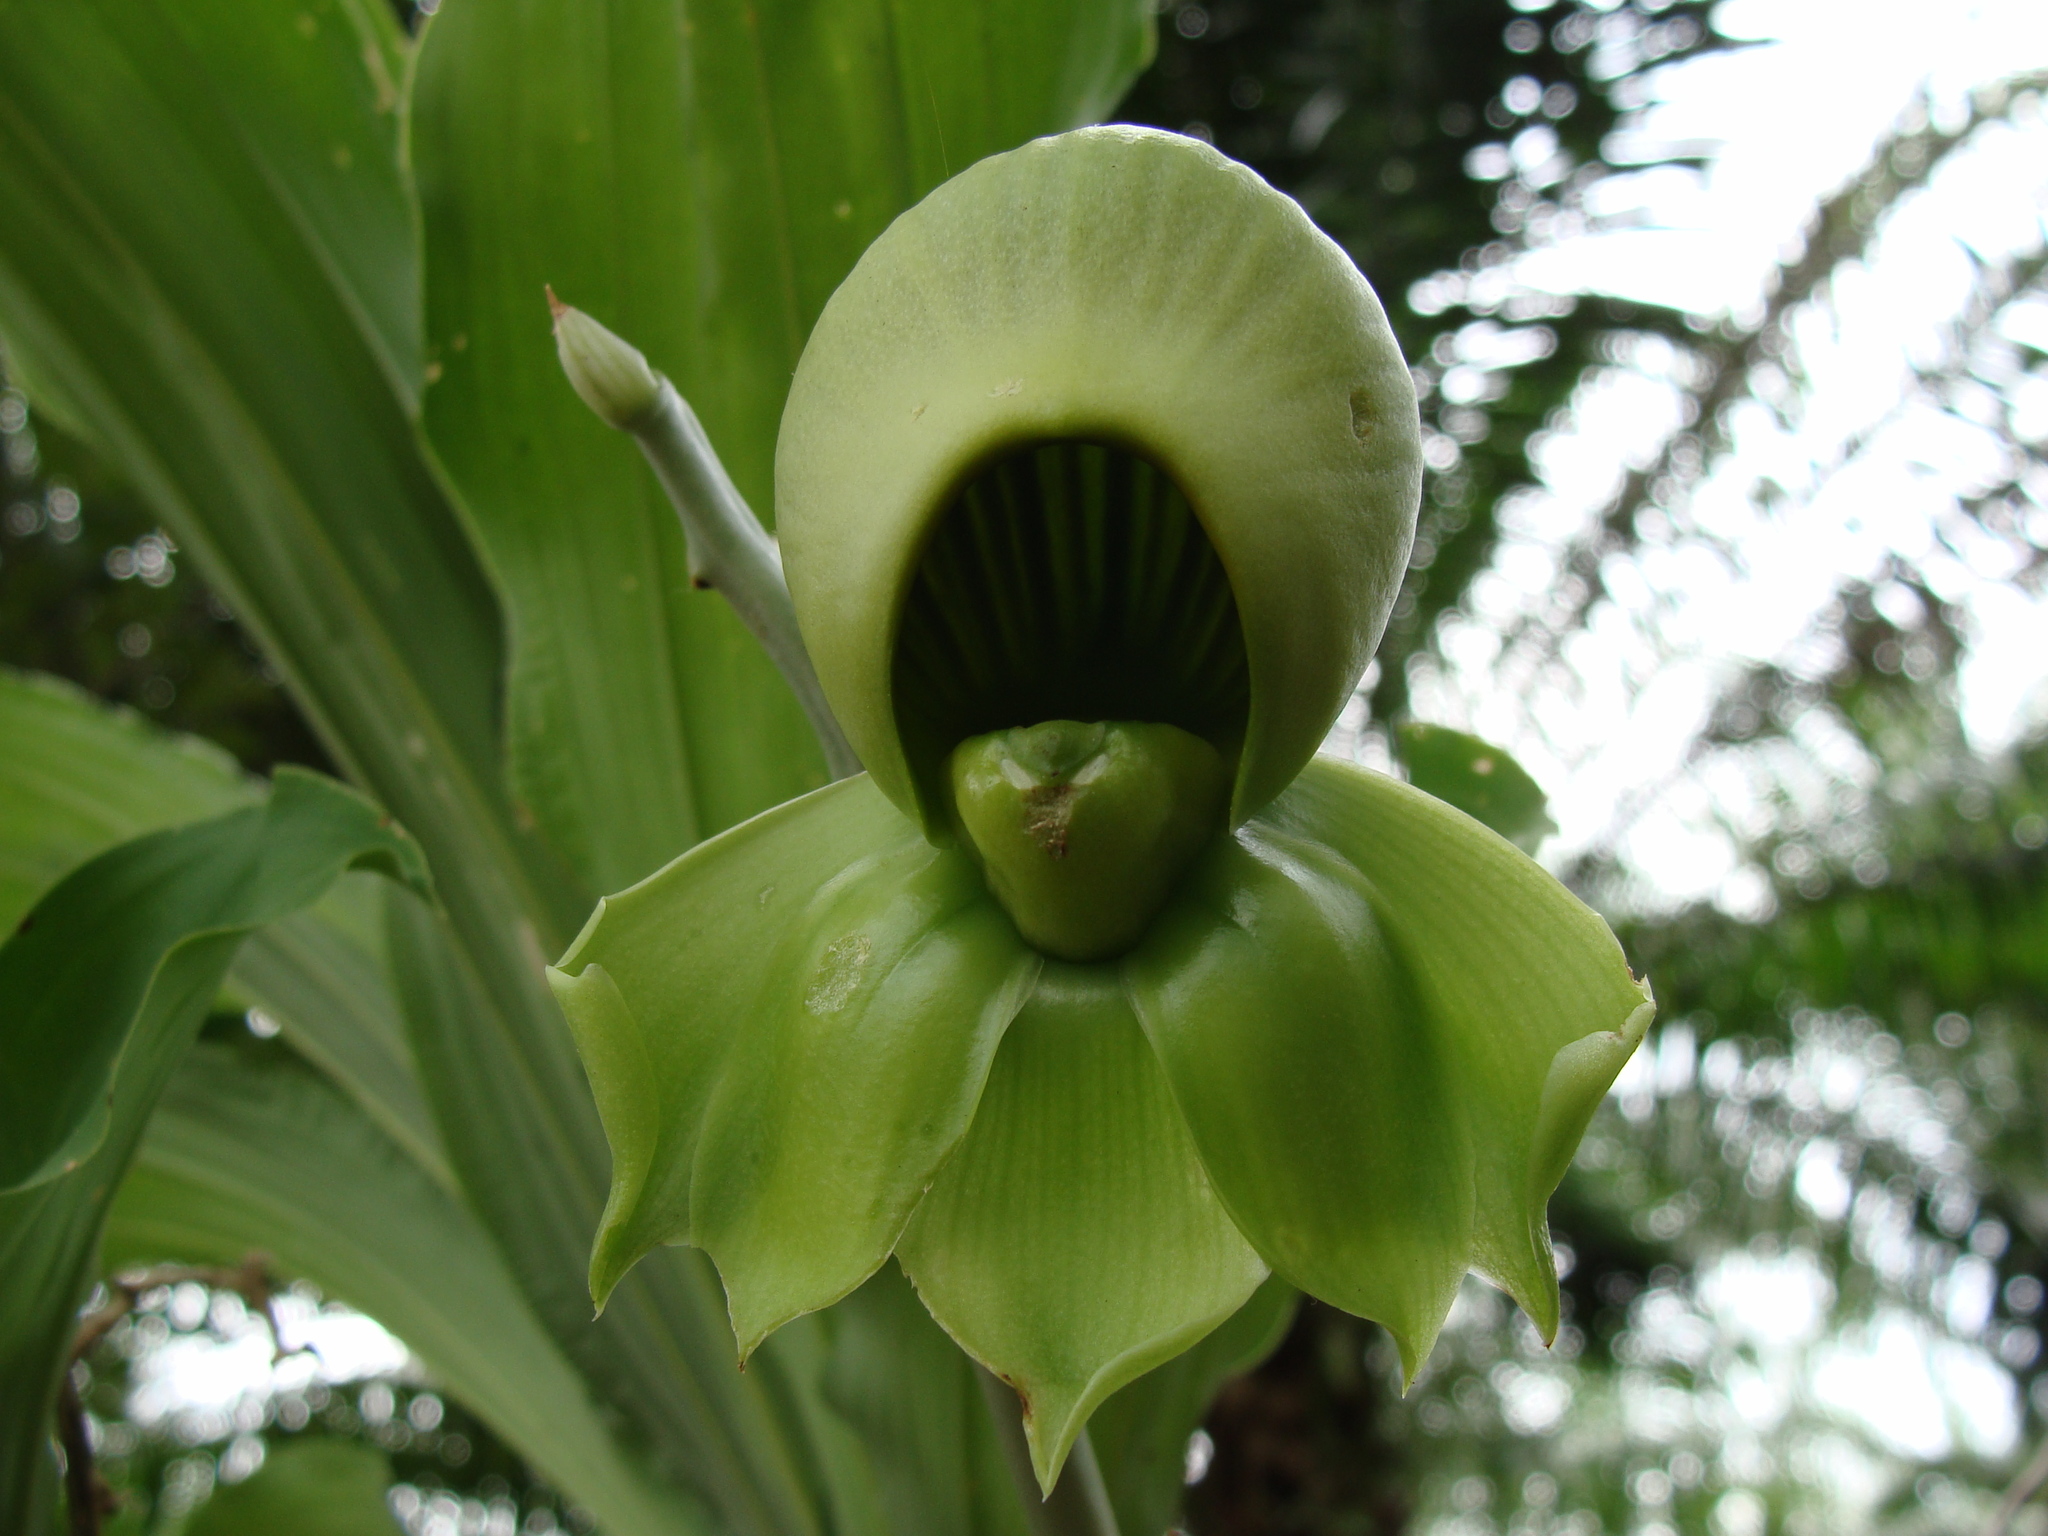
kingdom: Plantae
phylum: Tracheophyta
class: Liliopsida
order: Asparagales
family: Orchidaceae
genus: Catasetum
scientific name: Catasetum integerrimum
